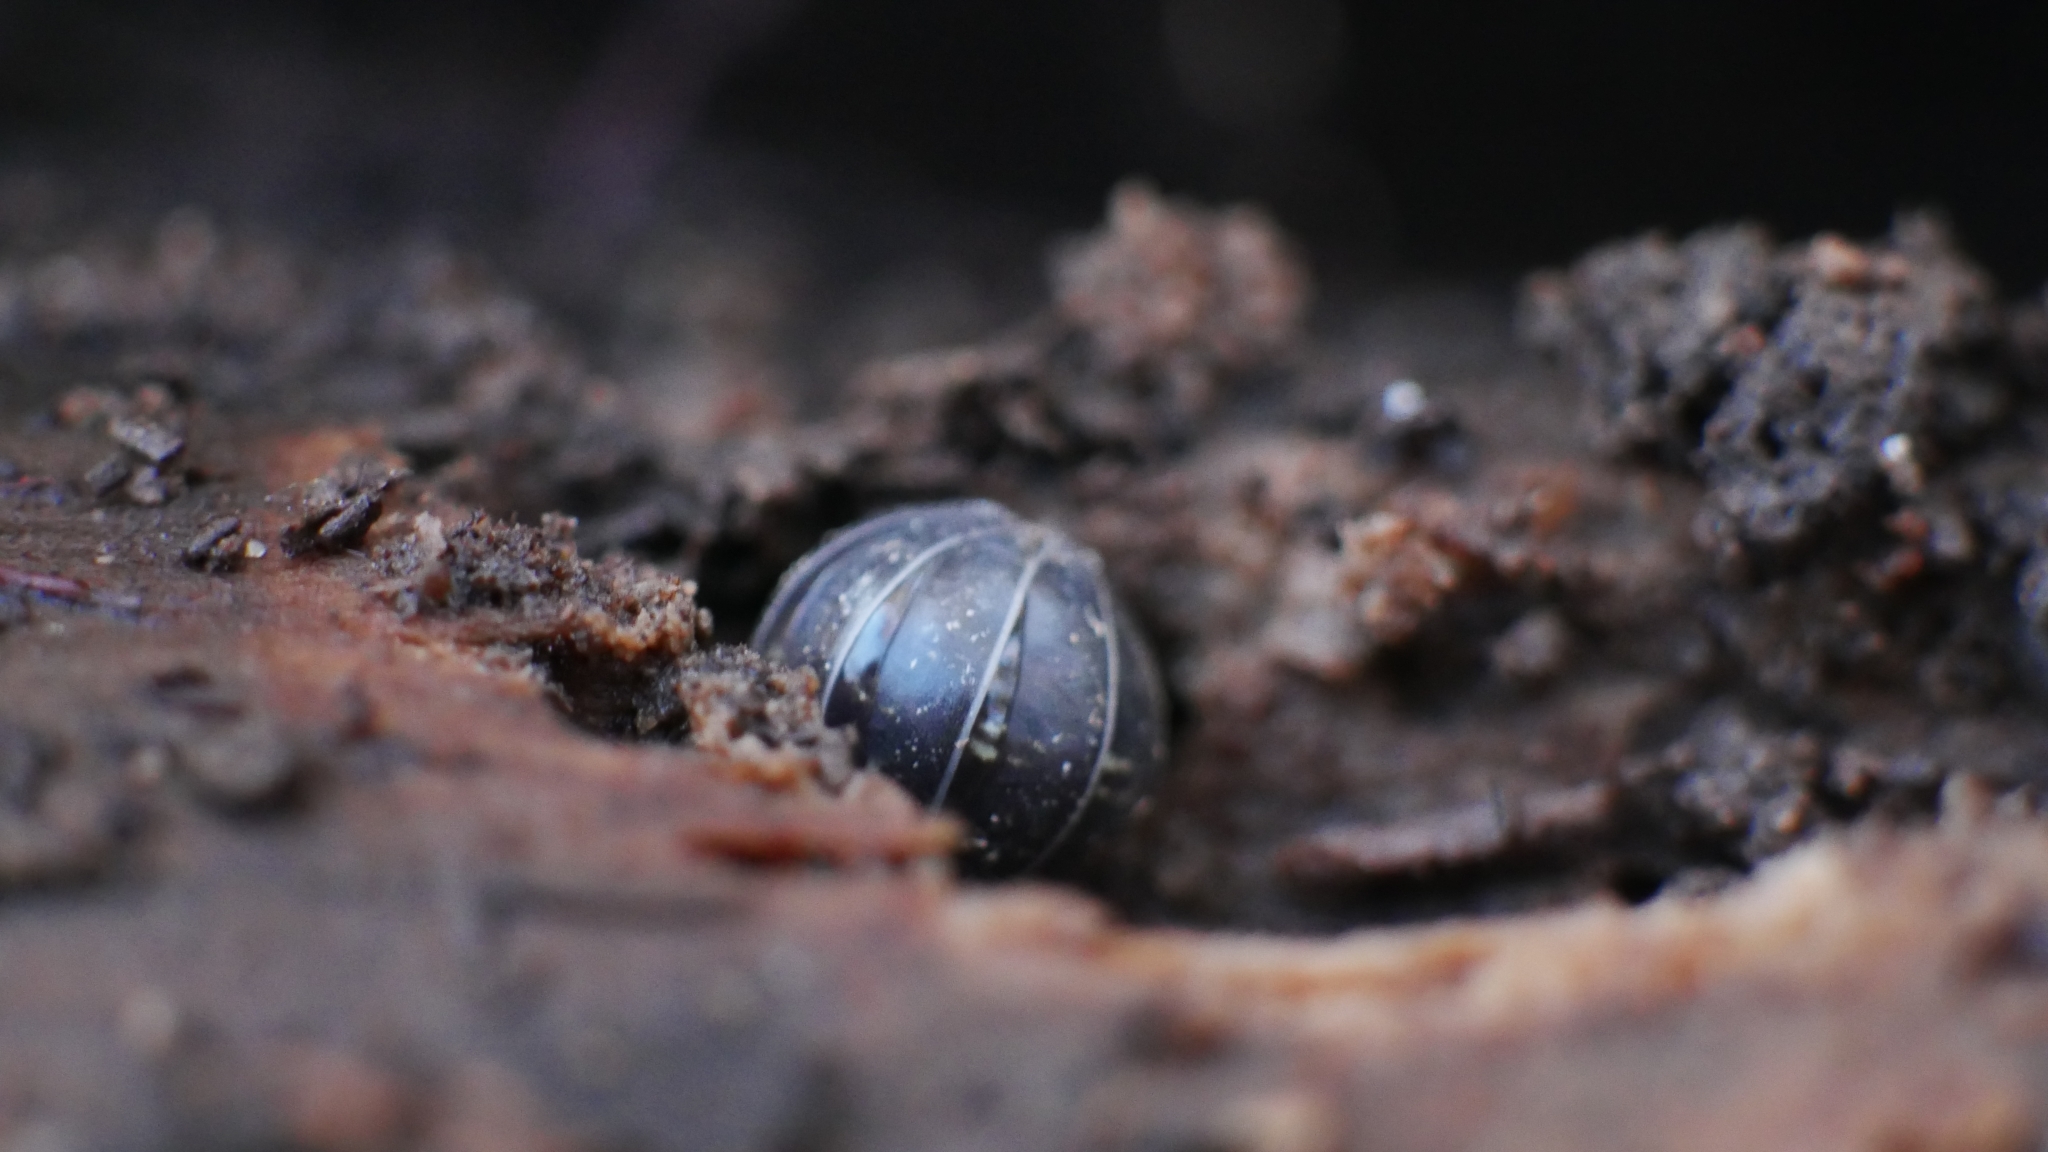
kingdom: Animalia
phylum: Arthropoda
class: Malacostraca
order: Isopoda
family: Armadillidiidae
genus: Armadillidium
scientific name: Armadillidium vulgare
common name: Common pill woodlouse
